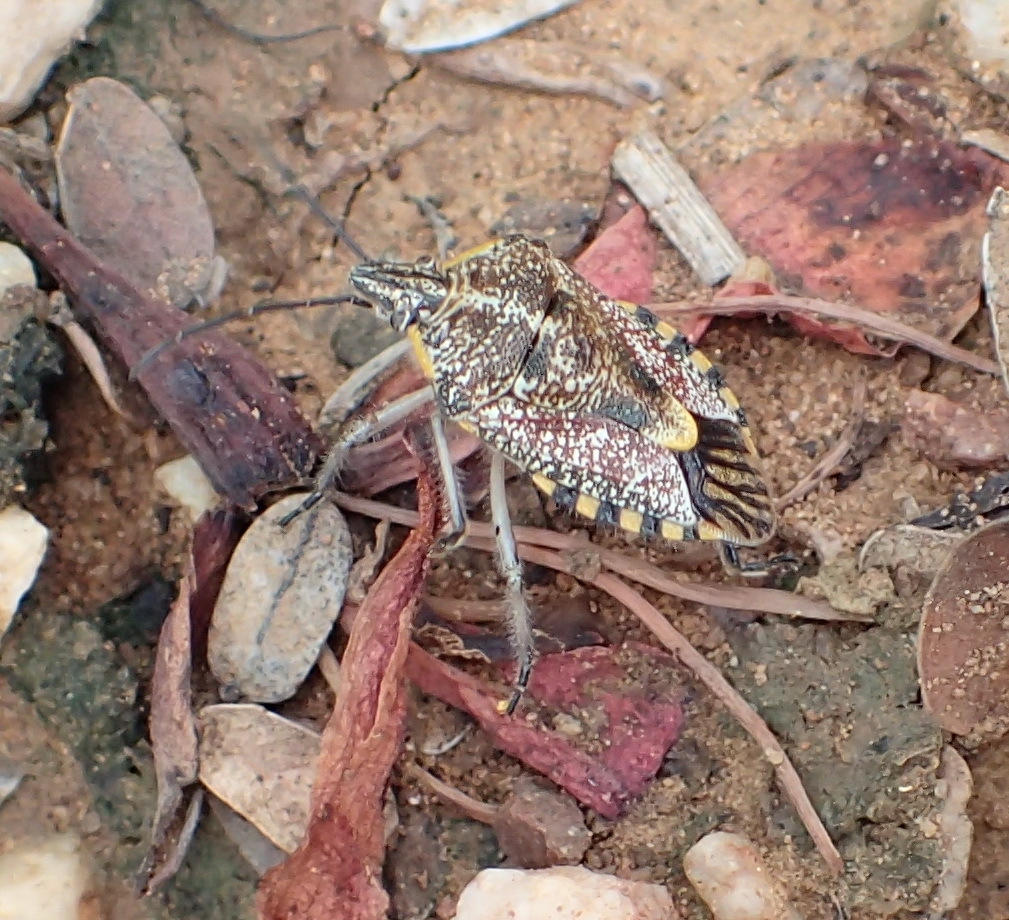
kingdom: Animalia
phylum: Arthropoda
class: Insecta
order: Hemiptera
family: Pentatomidae
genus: Agonoscelis
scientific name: Agonoscelis versicoloratus
